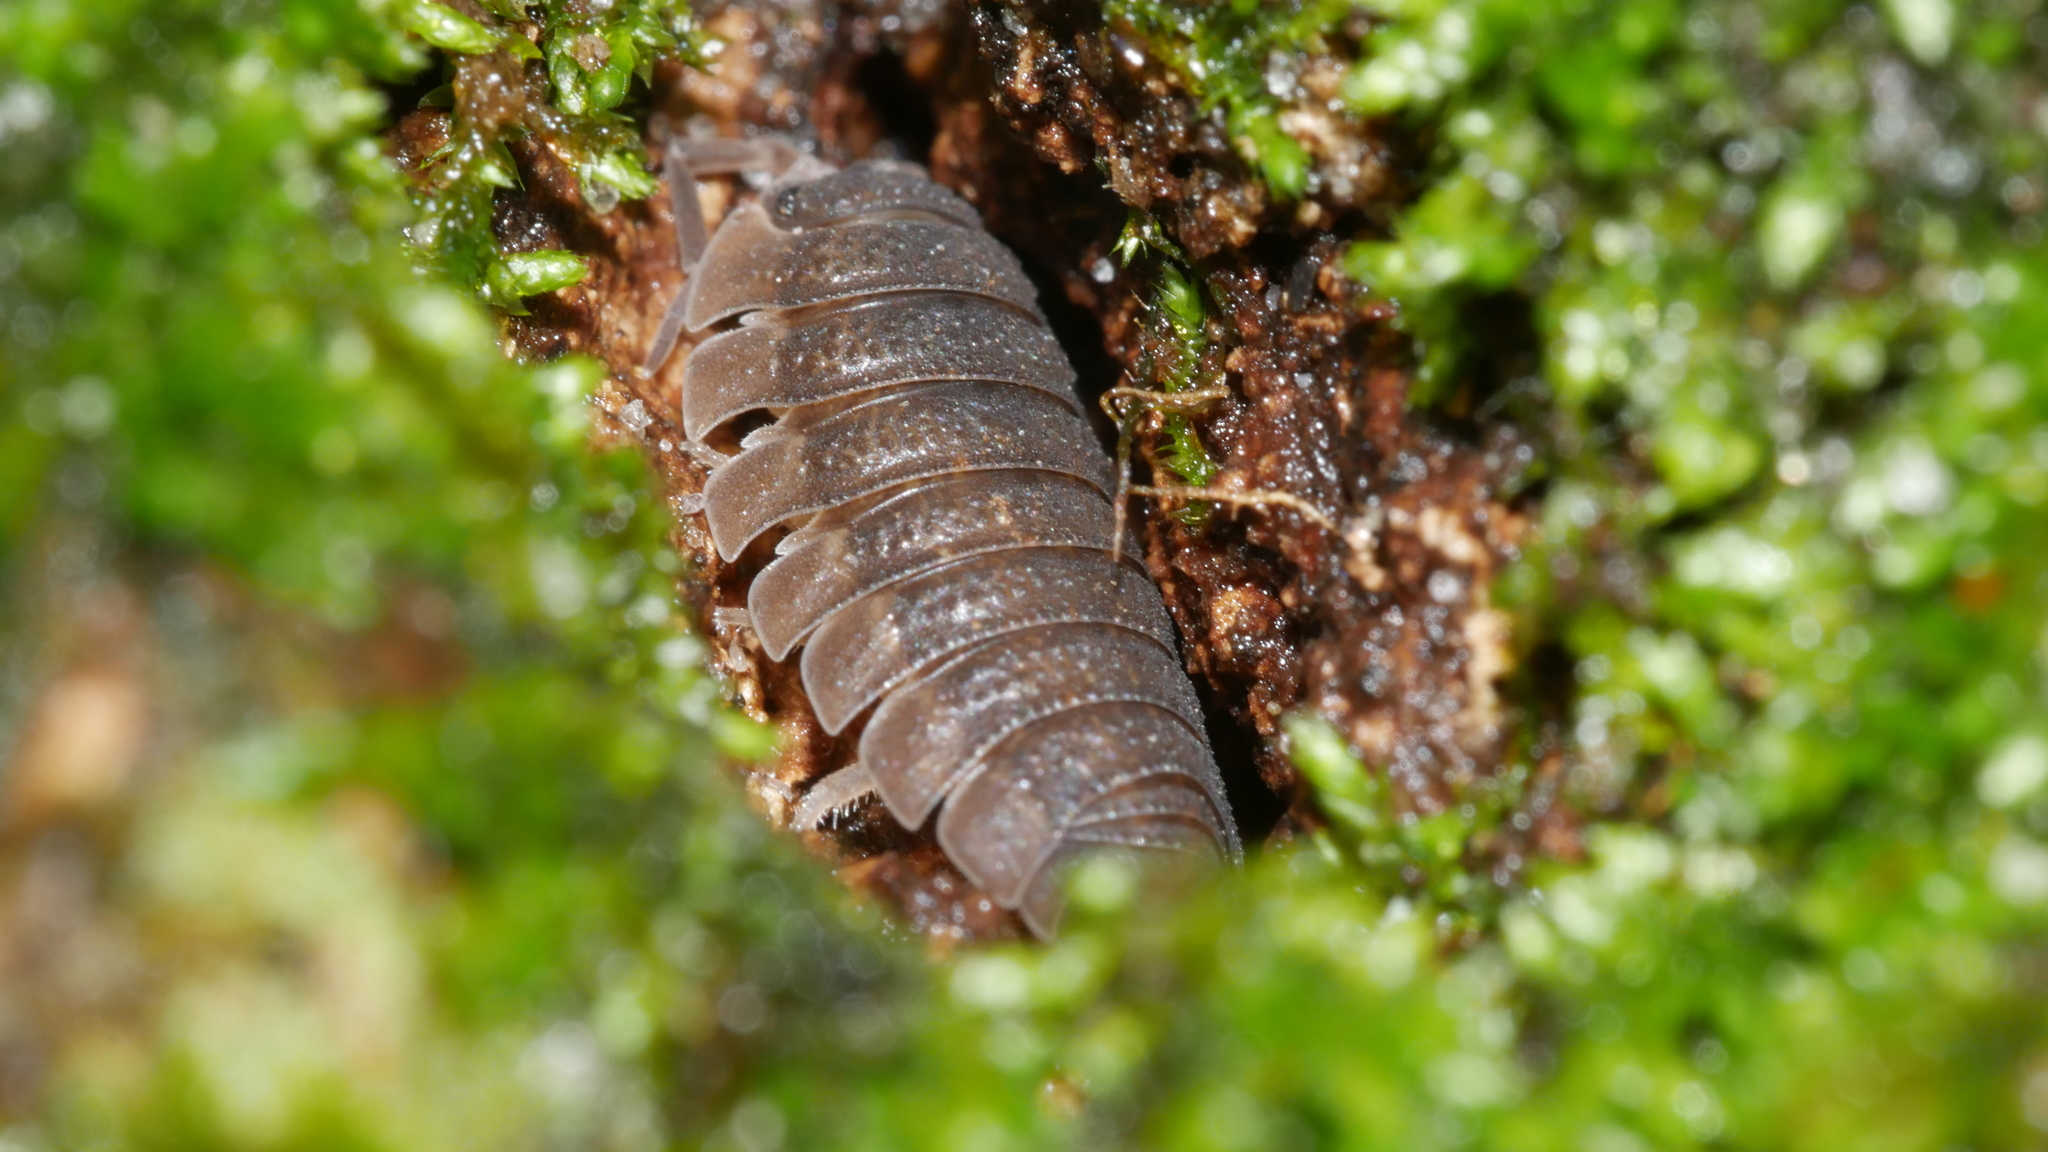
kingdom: Animalia
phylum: Arthropoda
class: Malacostraca
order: Isopoda
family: Porcellionidae
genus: Porcellio
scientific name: Porcellio scaber
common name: Common rough woodlouse
